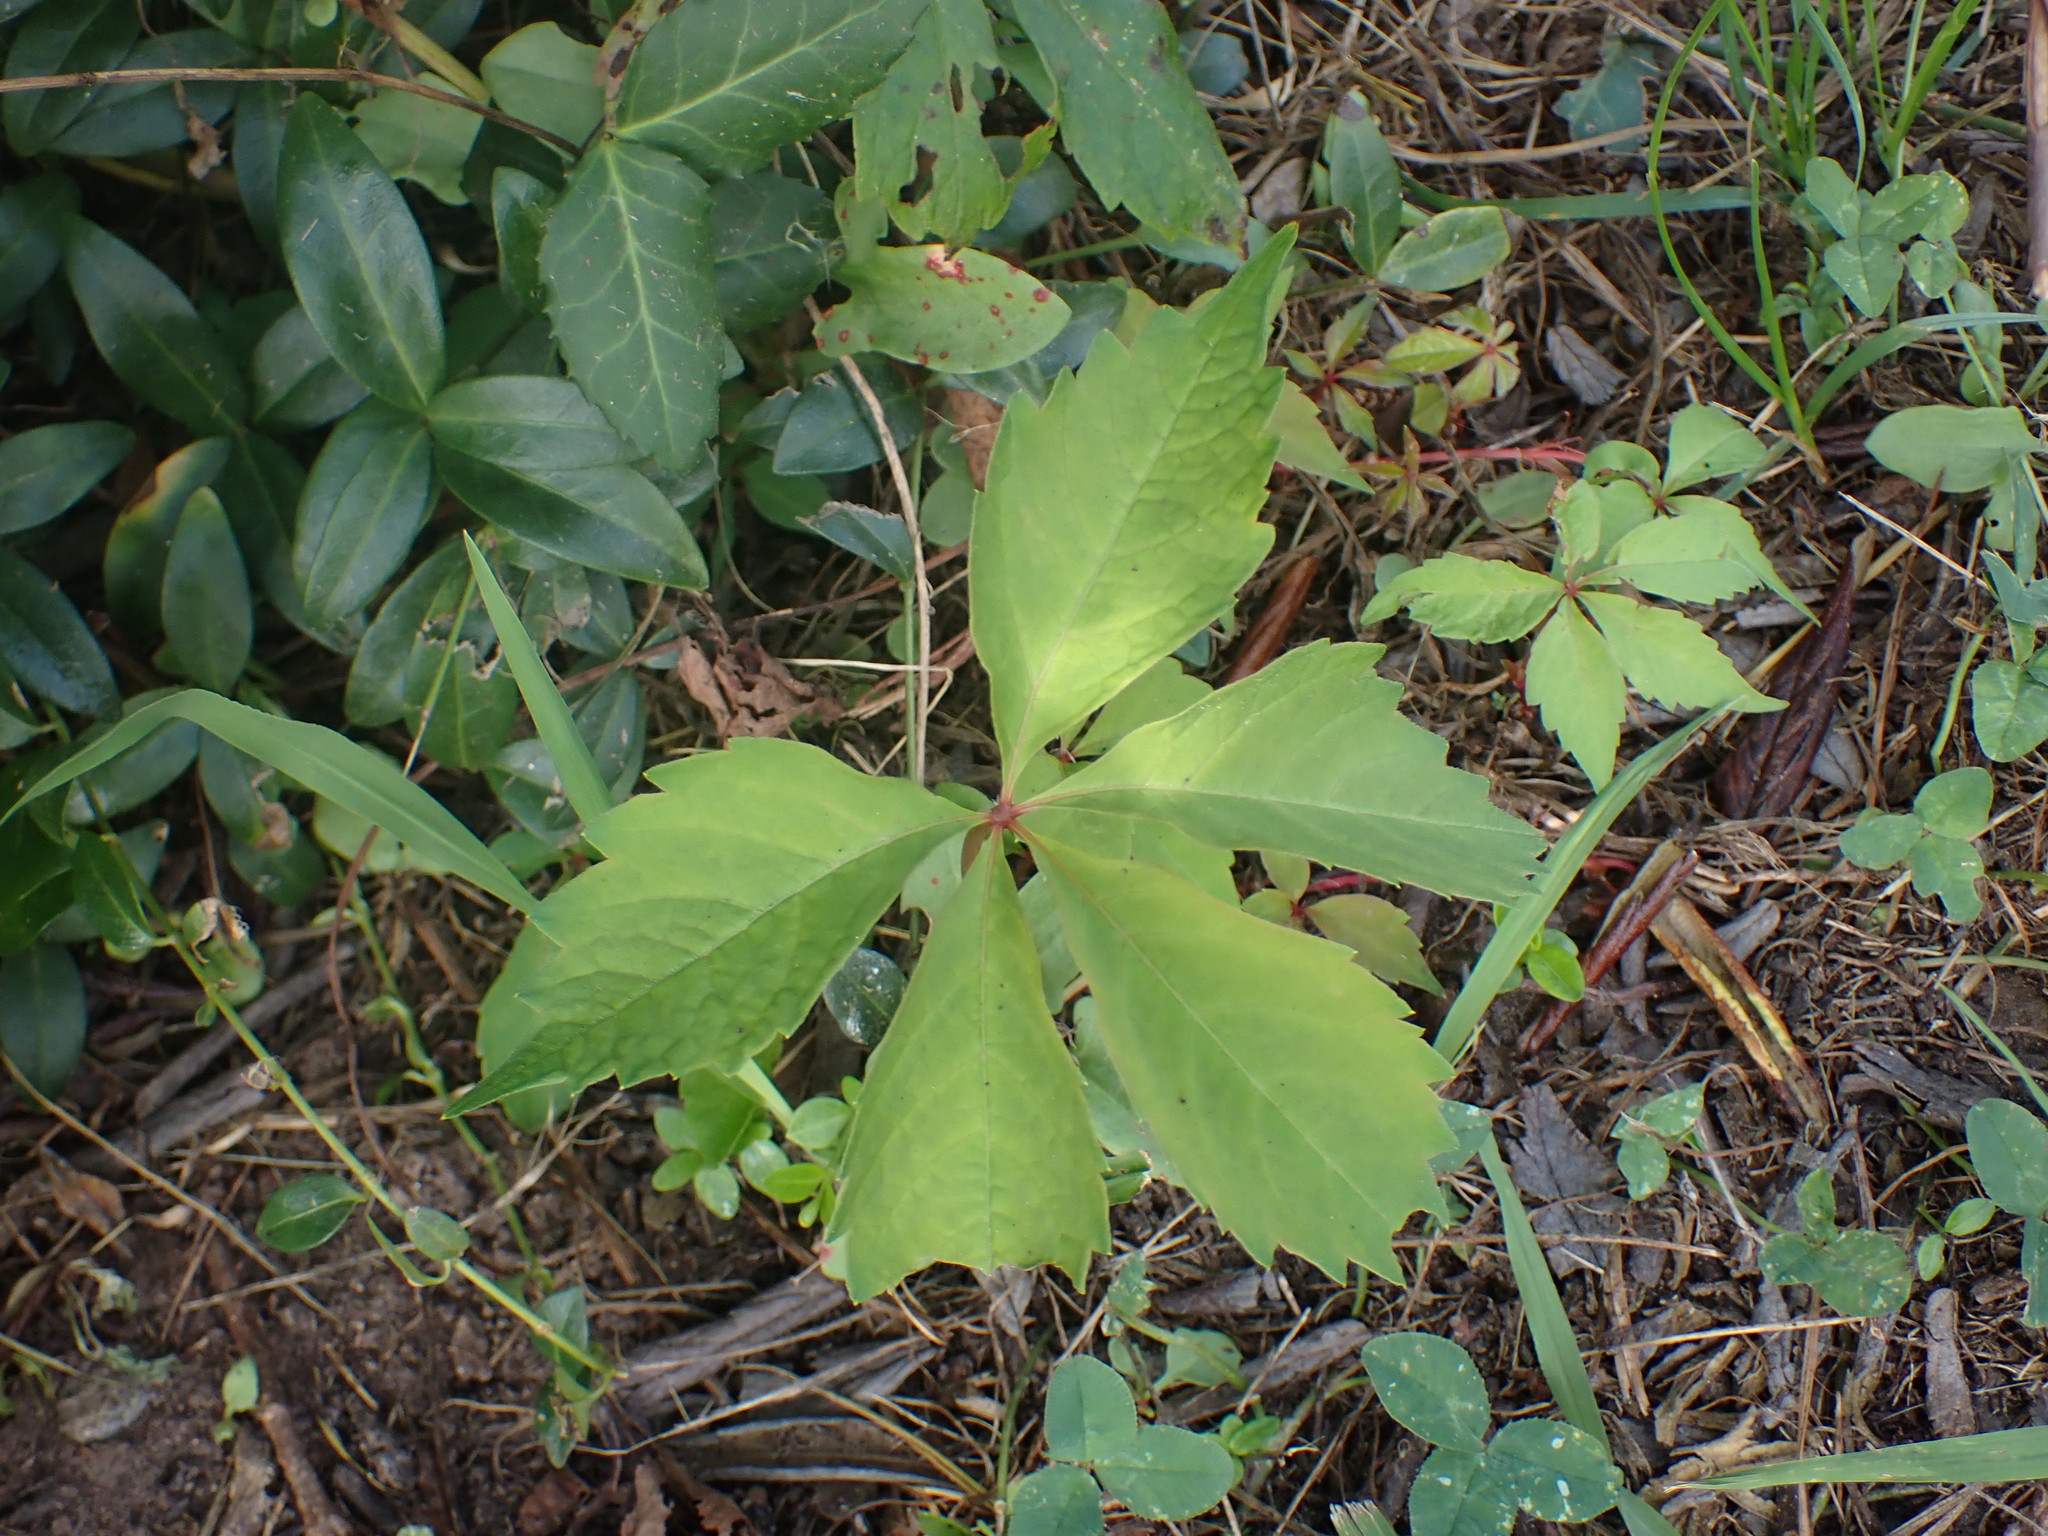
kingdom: Plantae
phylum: Tracheophyta
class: Magnoliopsida
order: Vitales
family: Vitaceae
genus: Parthenocissus
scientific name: Parthenocissus quinquefolia
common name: Virginia-creeper
